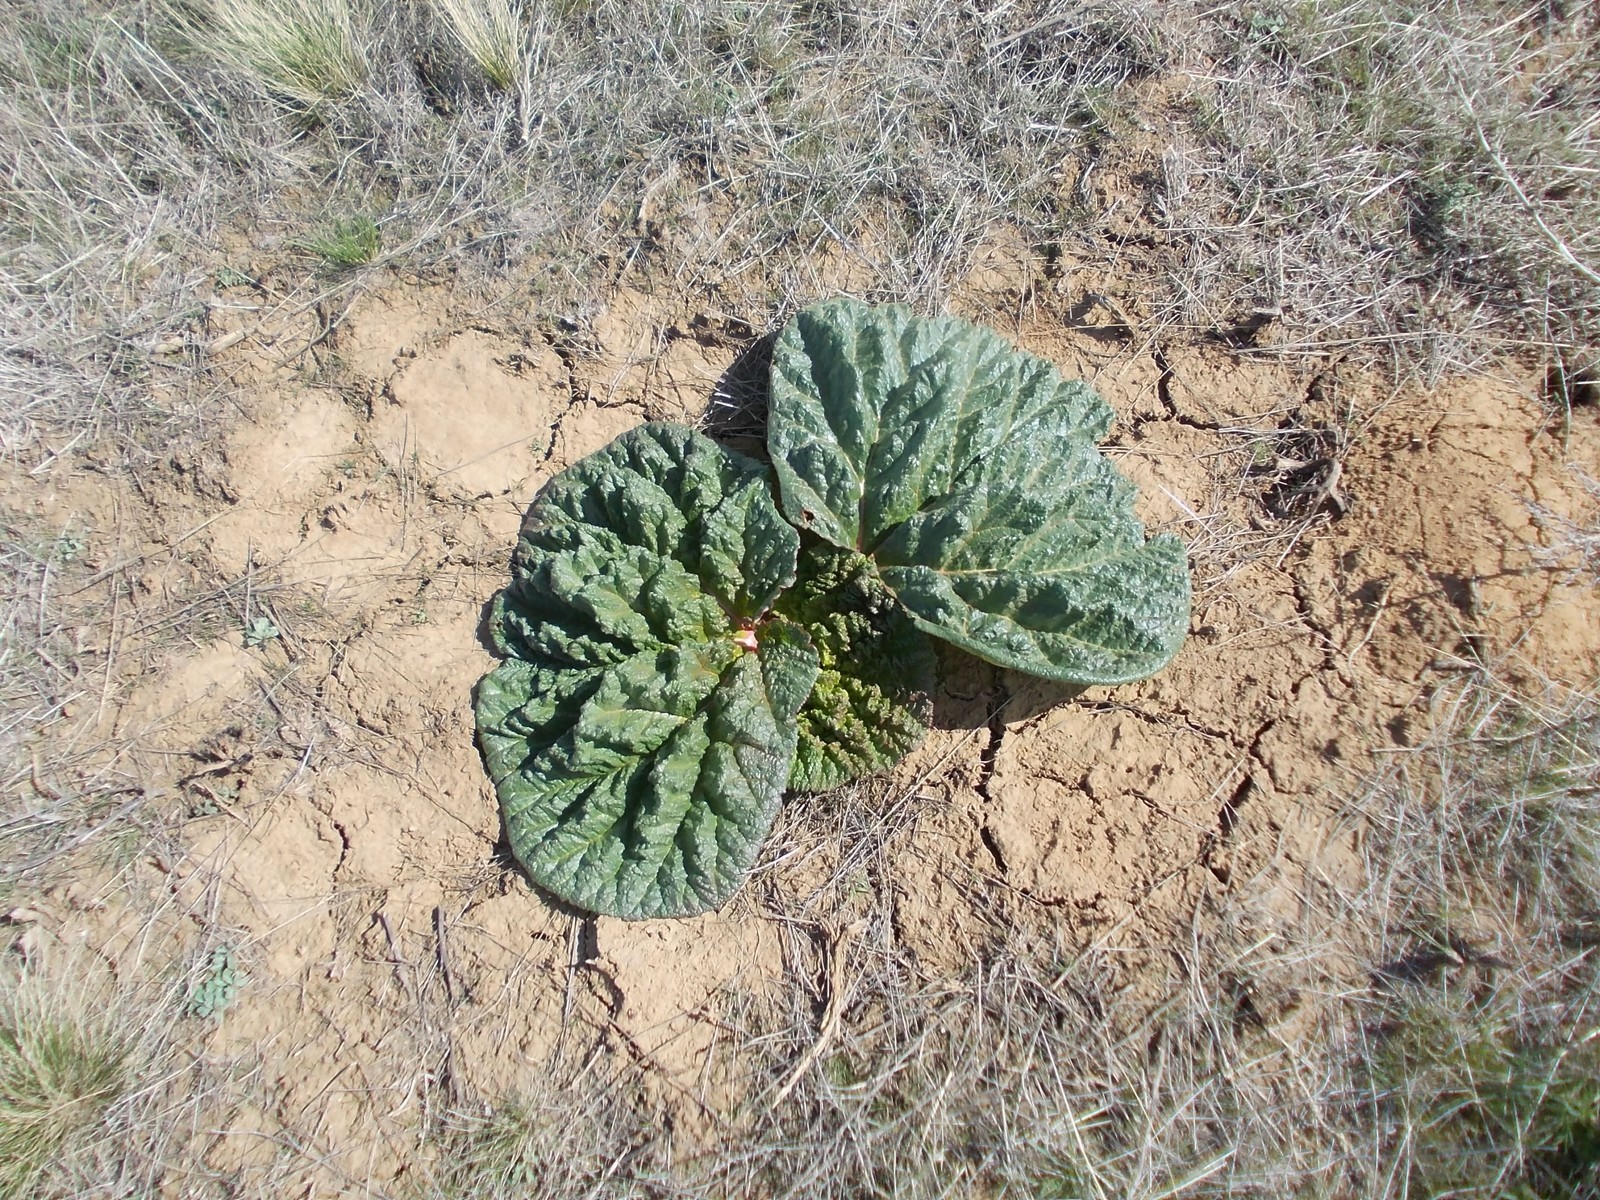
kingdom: Plantae
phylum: Tracheophyta
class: Magnoliopsida
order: Caryophyllales
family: Polygonaceae
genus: Rheum
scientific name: Rheum tataricum
